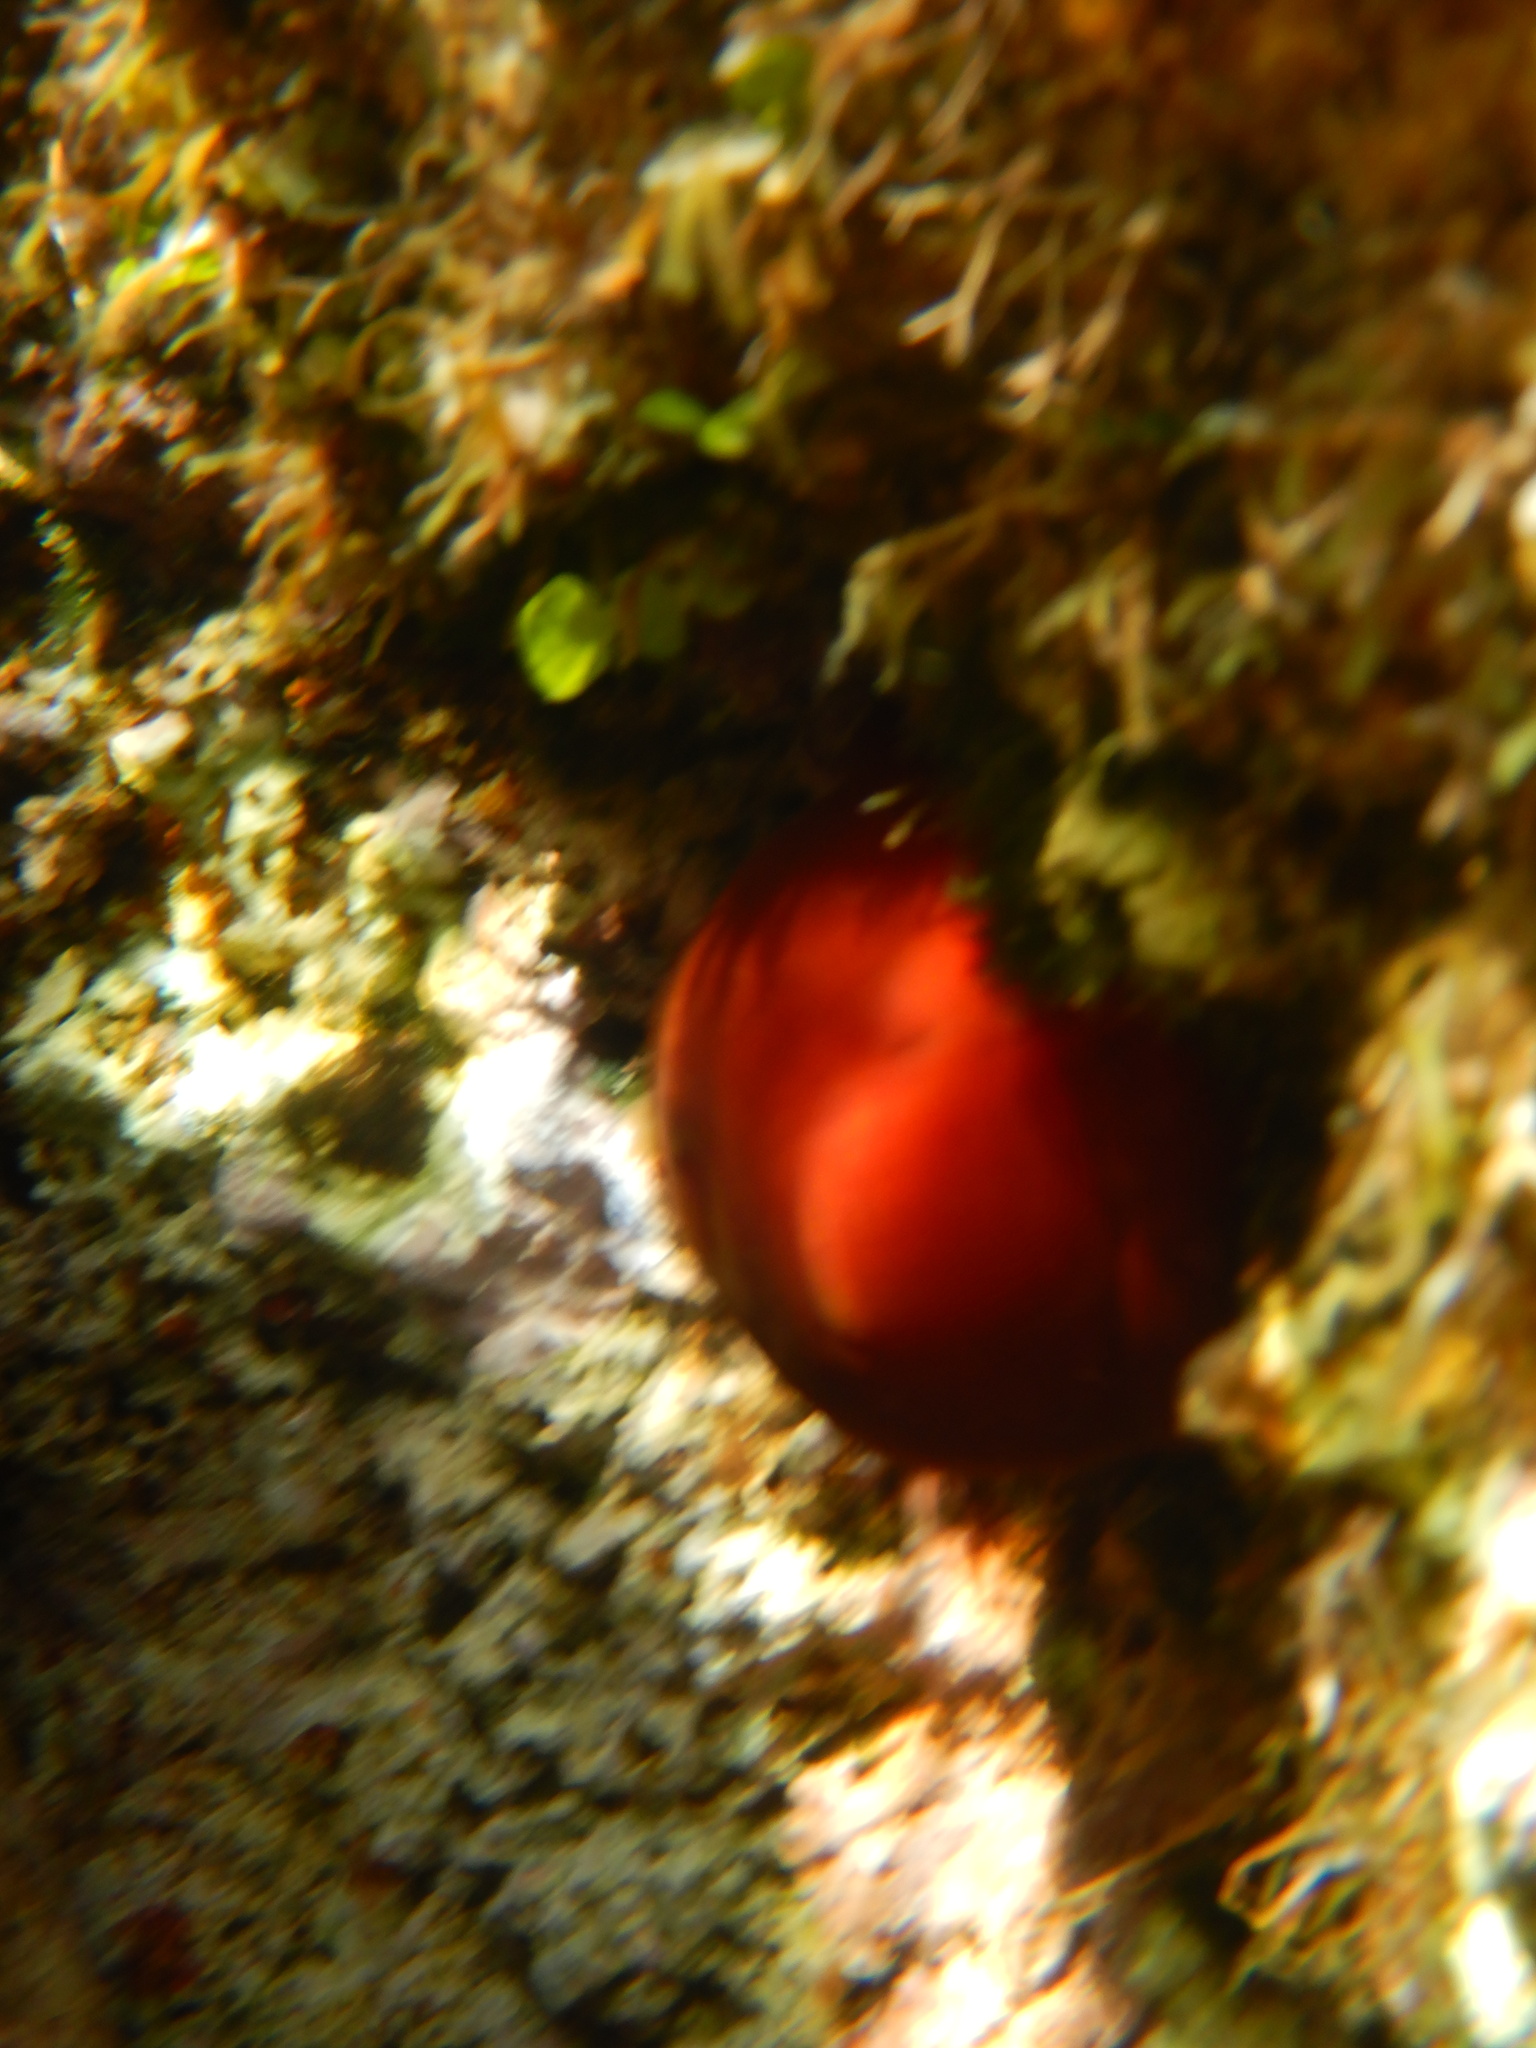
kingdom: Animalia
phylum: Cnidaria
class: Anthozoa
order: Actiniaria
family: Actiniidae
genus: Actinia
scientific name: Actinia mediterranea
